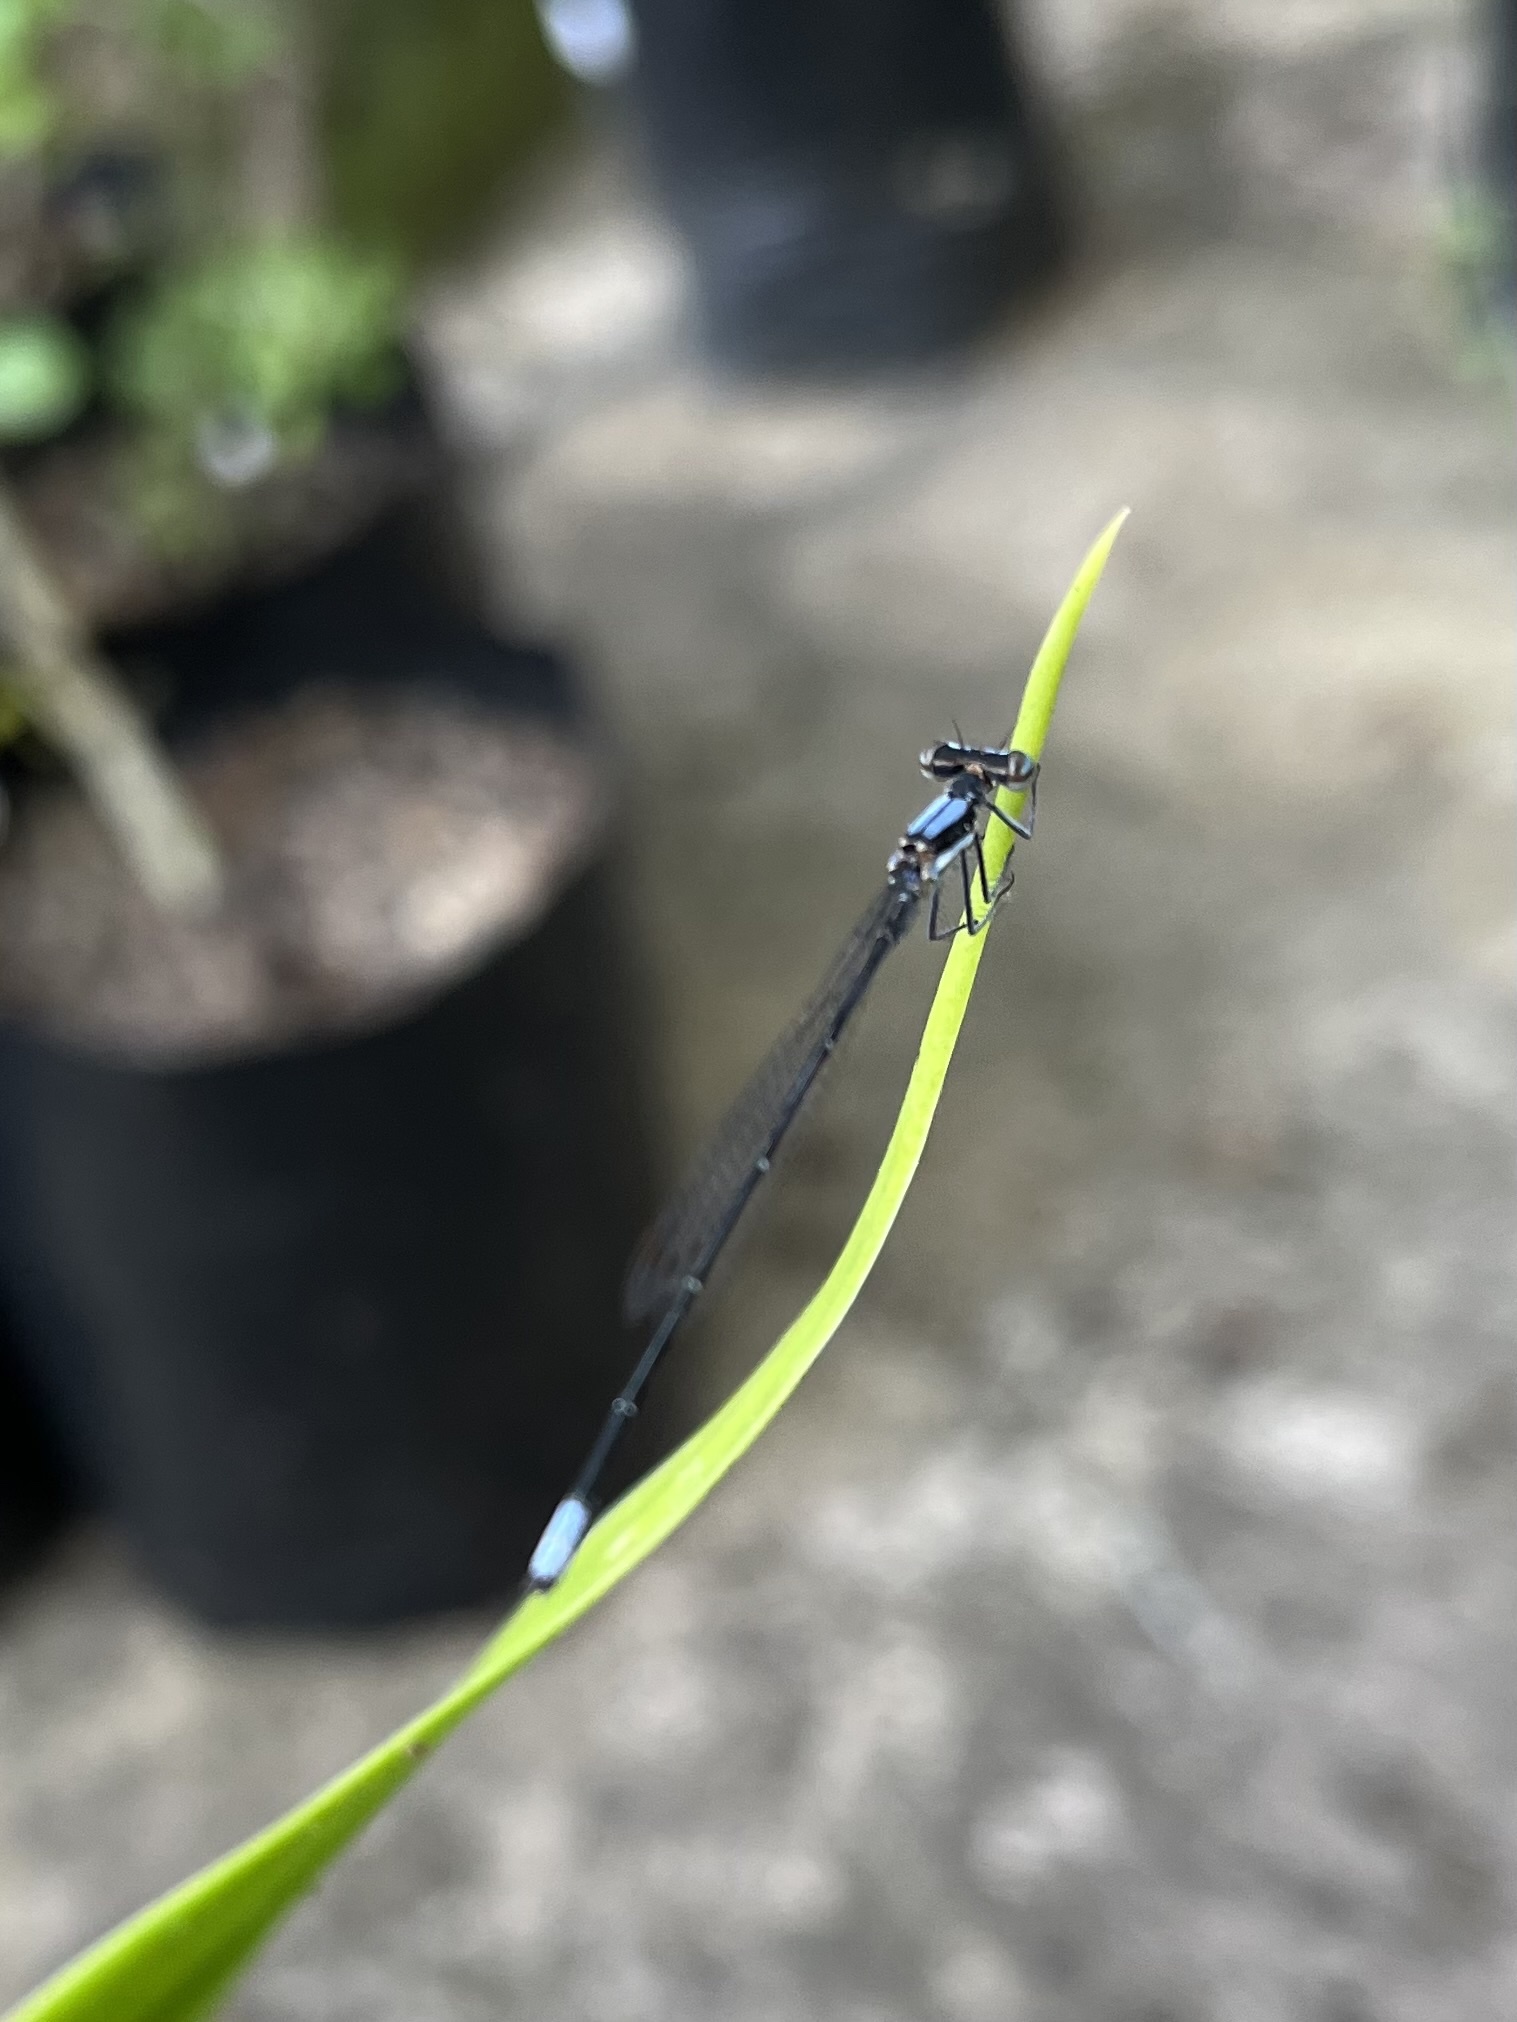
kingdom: Animalia
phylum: Arthropoda
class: Insecta
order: Odonata
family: Platycnemididae
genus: Elattoneura
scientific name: Elattoneura glauca
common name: Common threadtail
